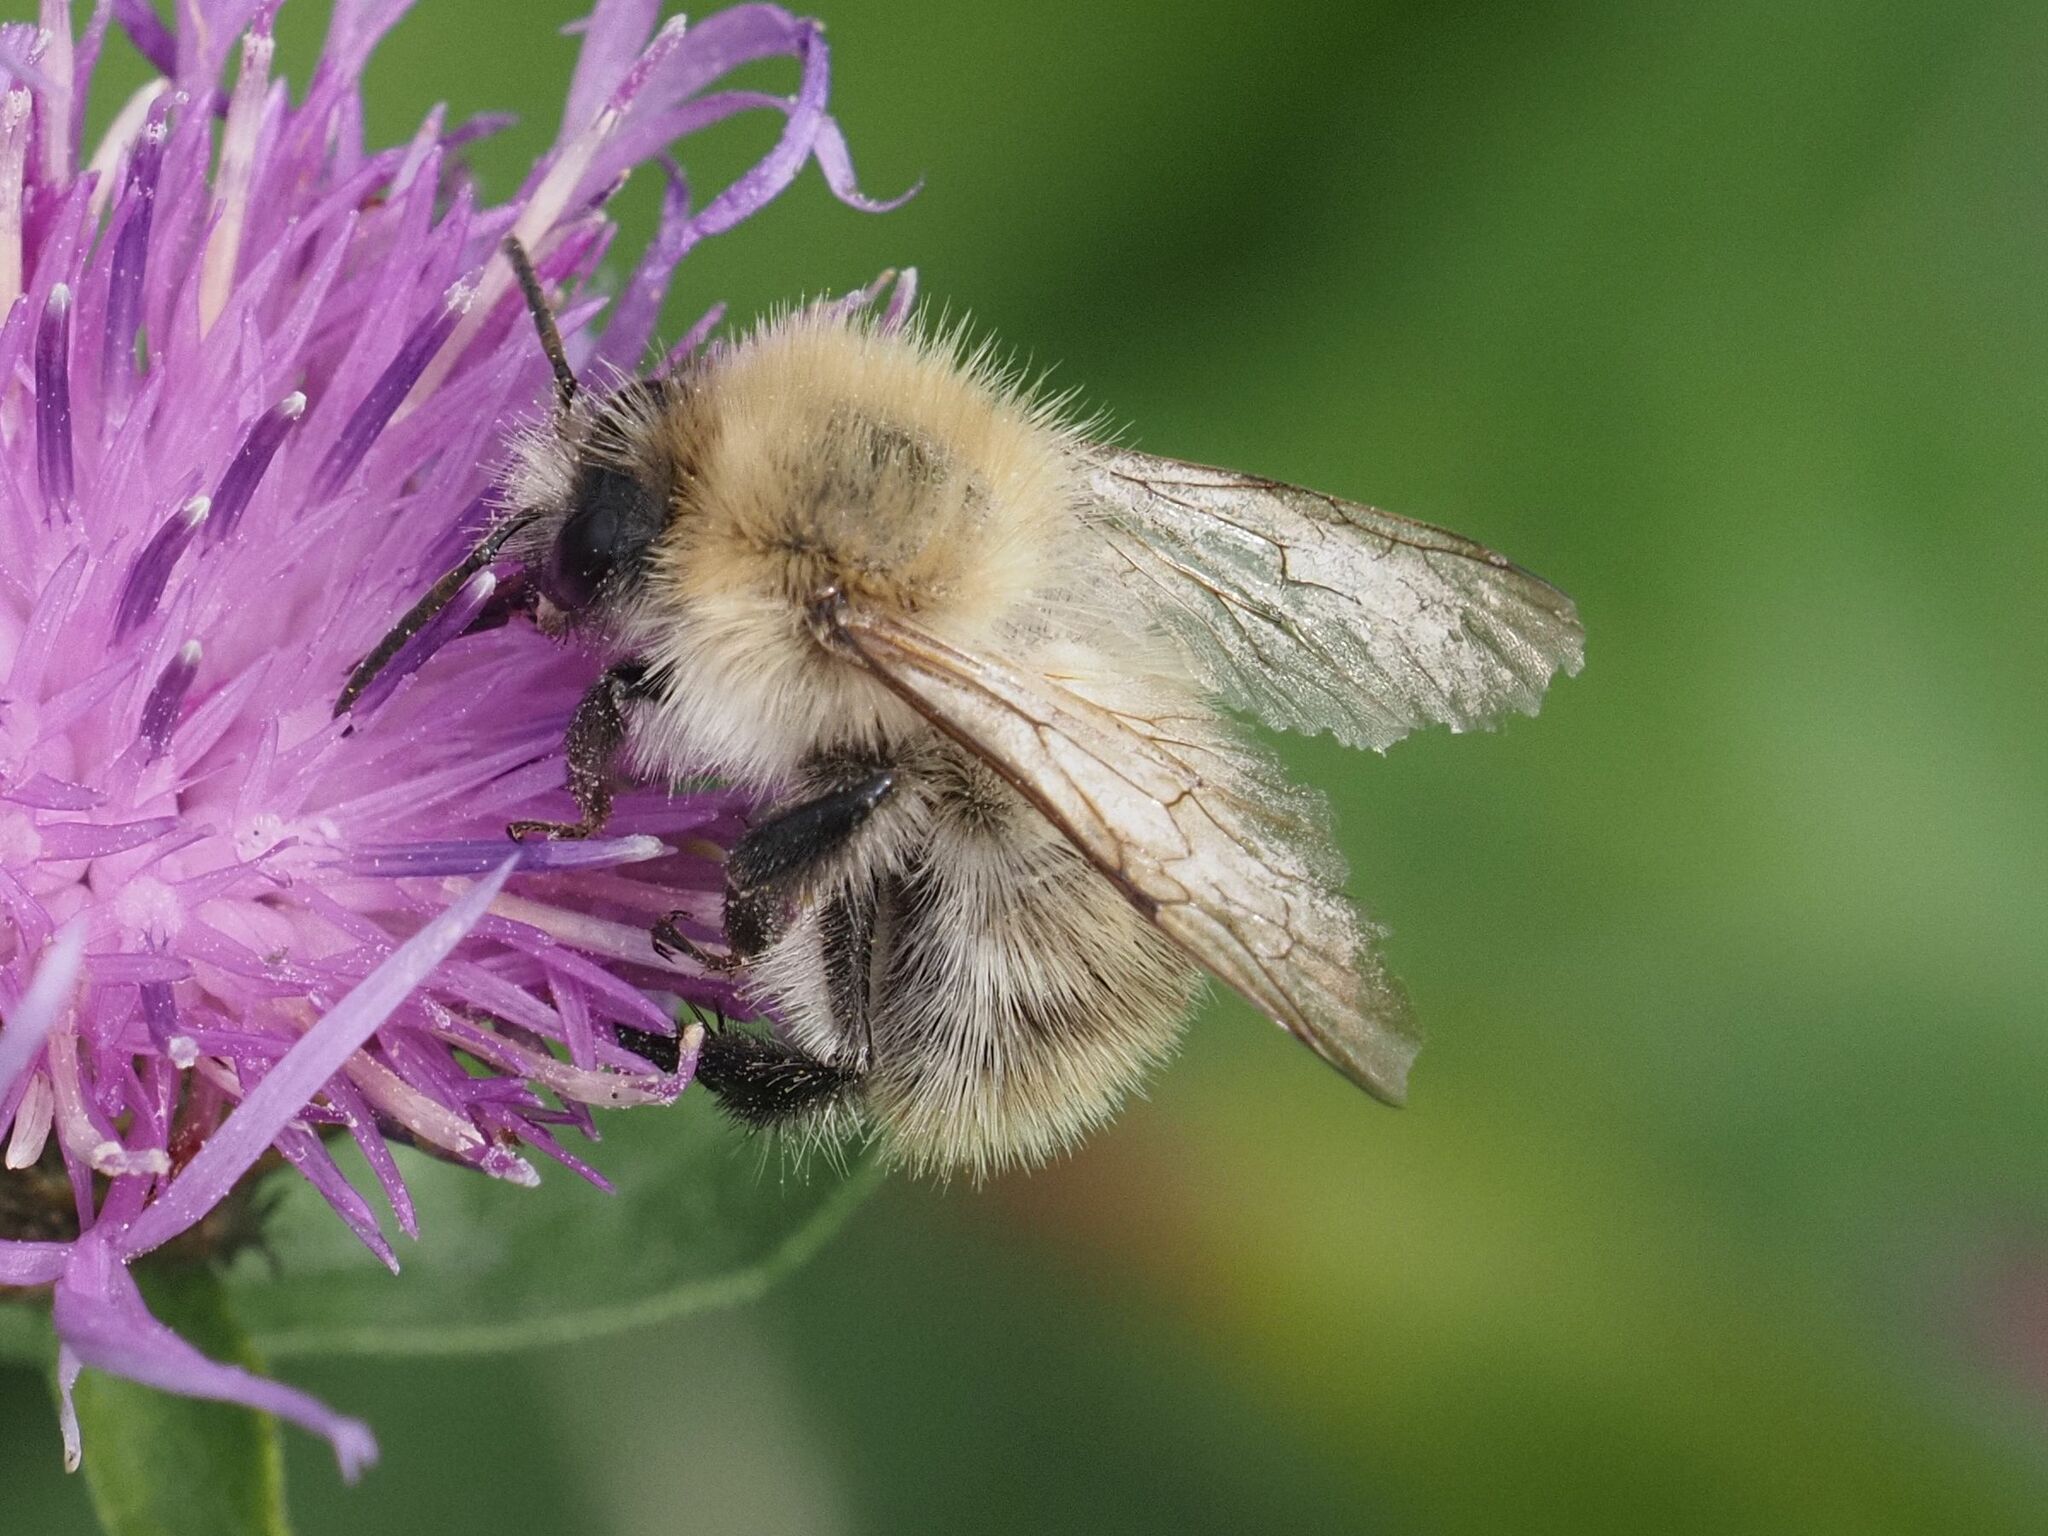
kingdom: Animalia
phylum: Arthropoda
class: Insecta
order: Hymenoptera
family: Apidae
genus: Bombus
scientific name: Bombus pascuorum
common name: Common carder bee
